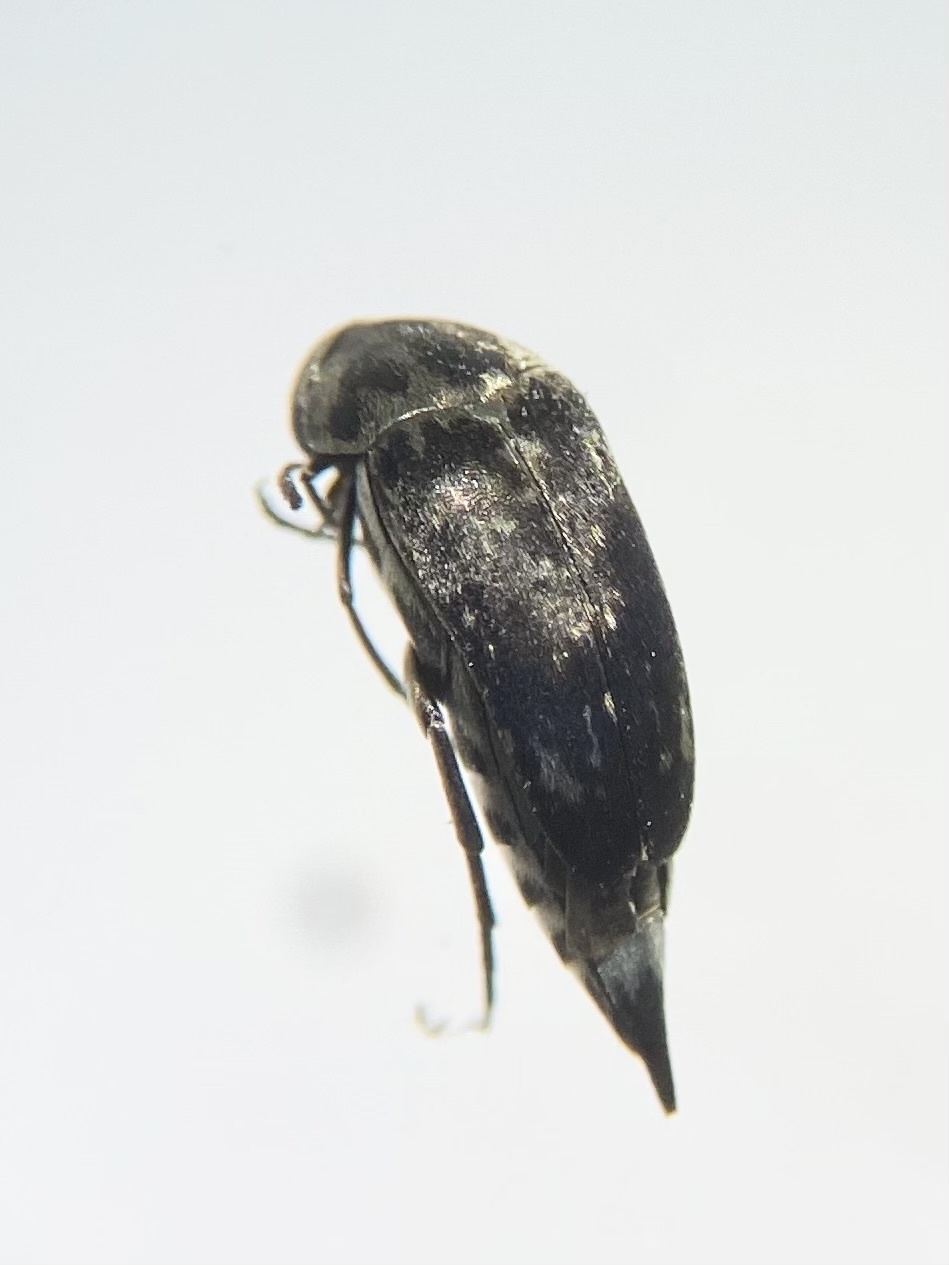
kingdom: Animalia
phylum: Arthropoda
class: Insecta
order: Coleoptera
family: Mordellidae
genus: Mordella
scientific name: Mordella marginata
